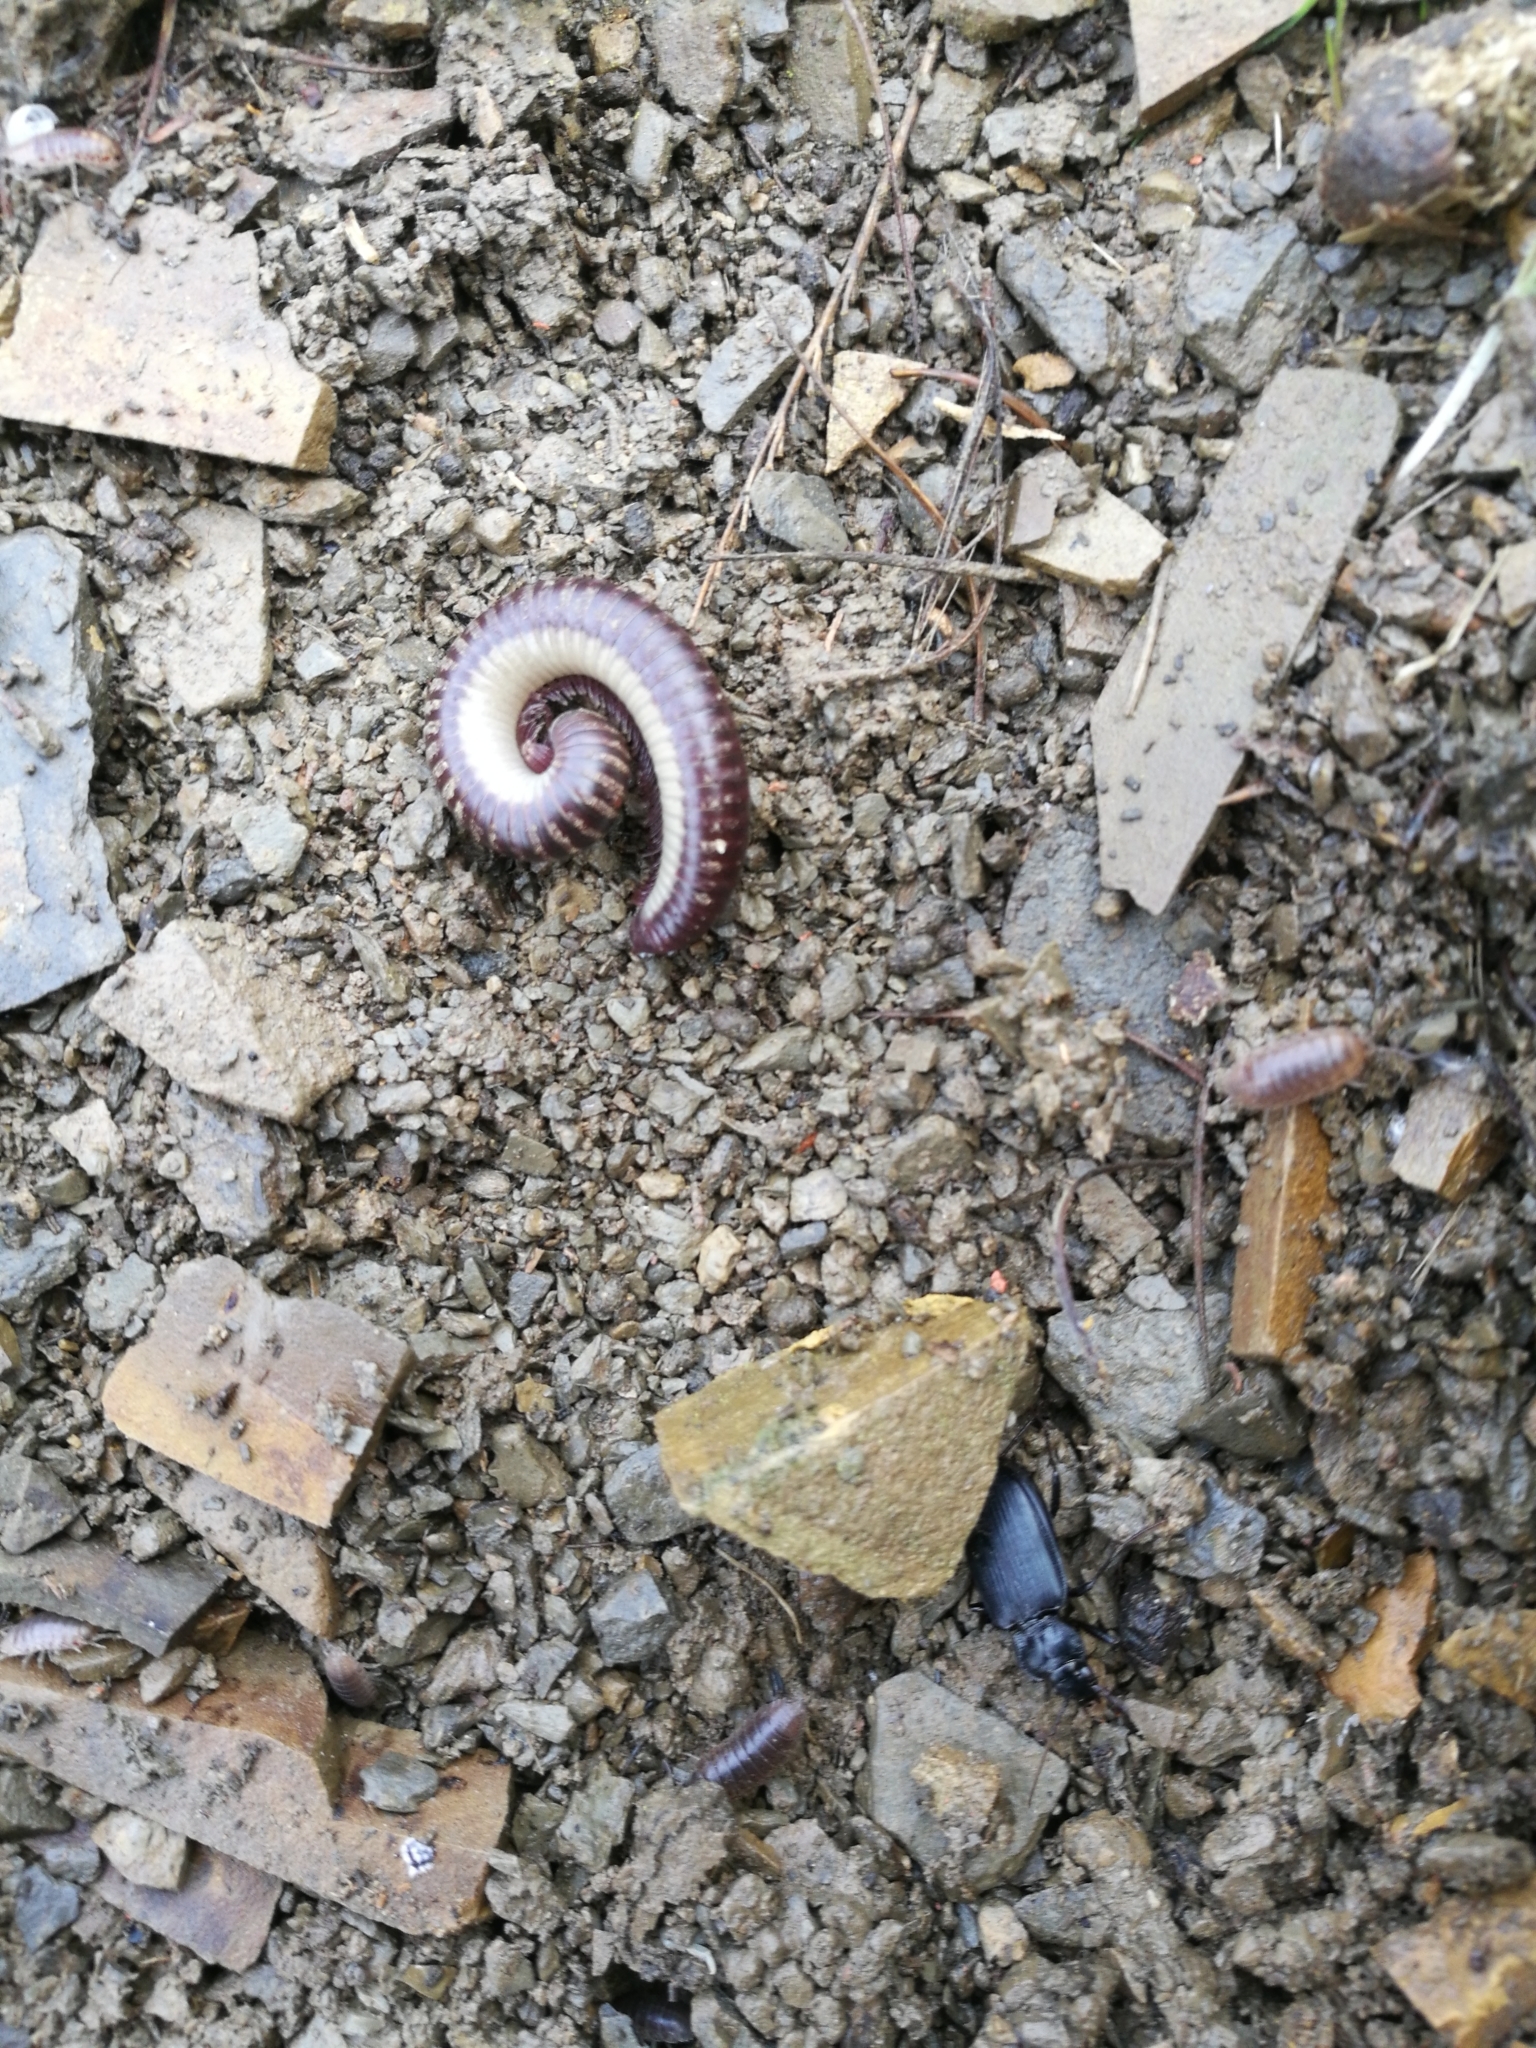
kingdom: Animalia
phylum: Arthropoda
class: Diplopoda
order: Julida
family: Julidae
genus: Ommatoiulus
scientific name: Ommatoiulus lapidarius
